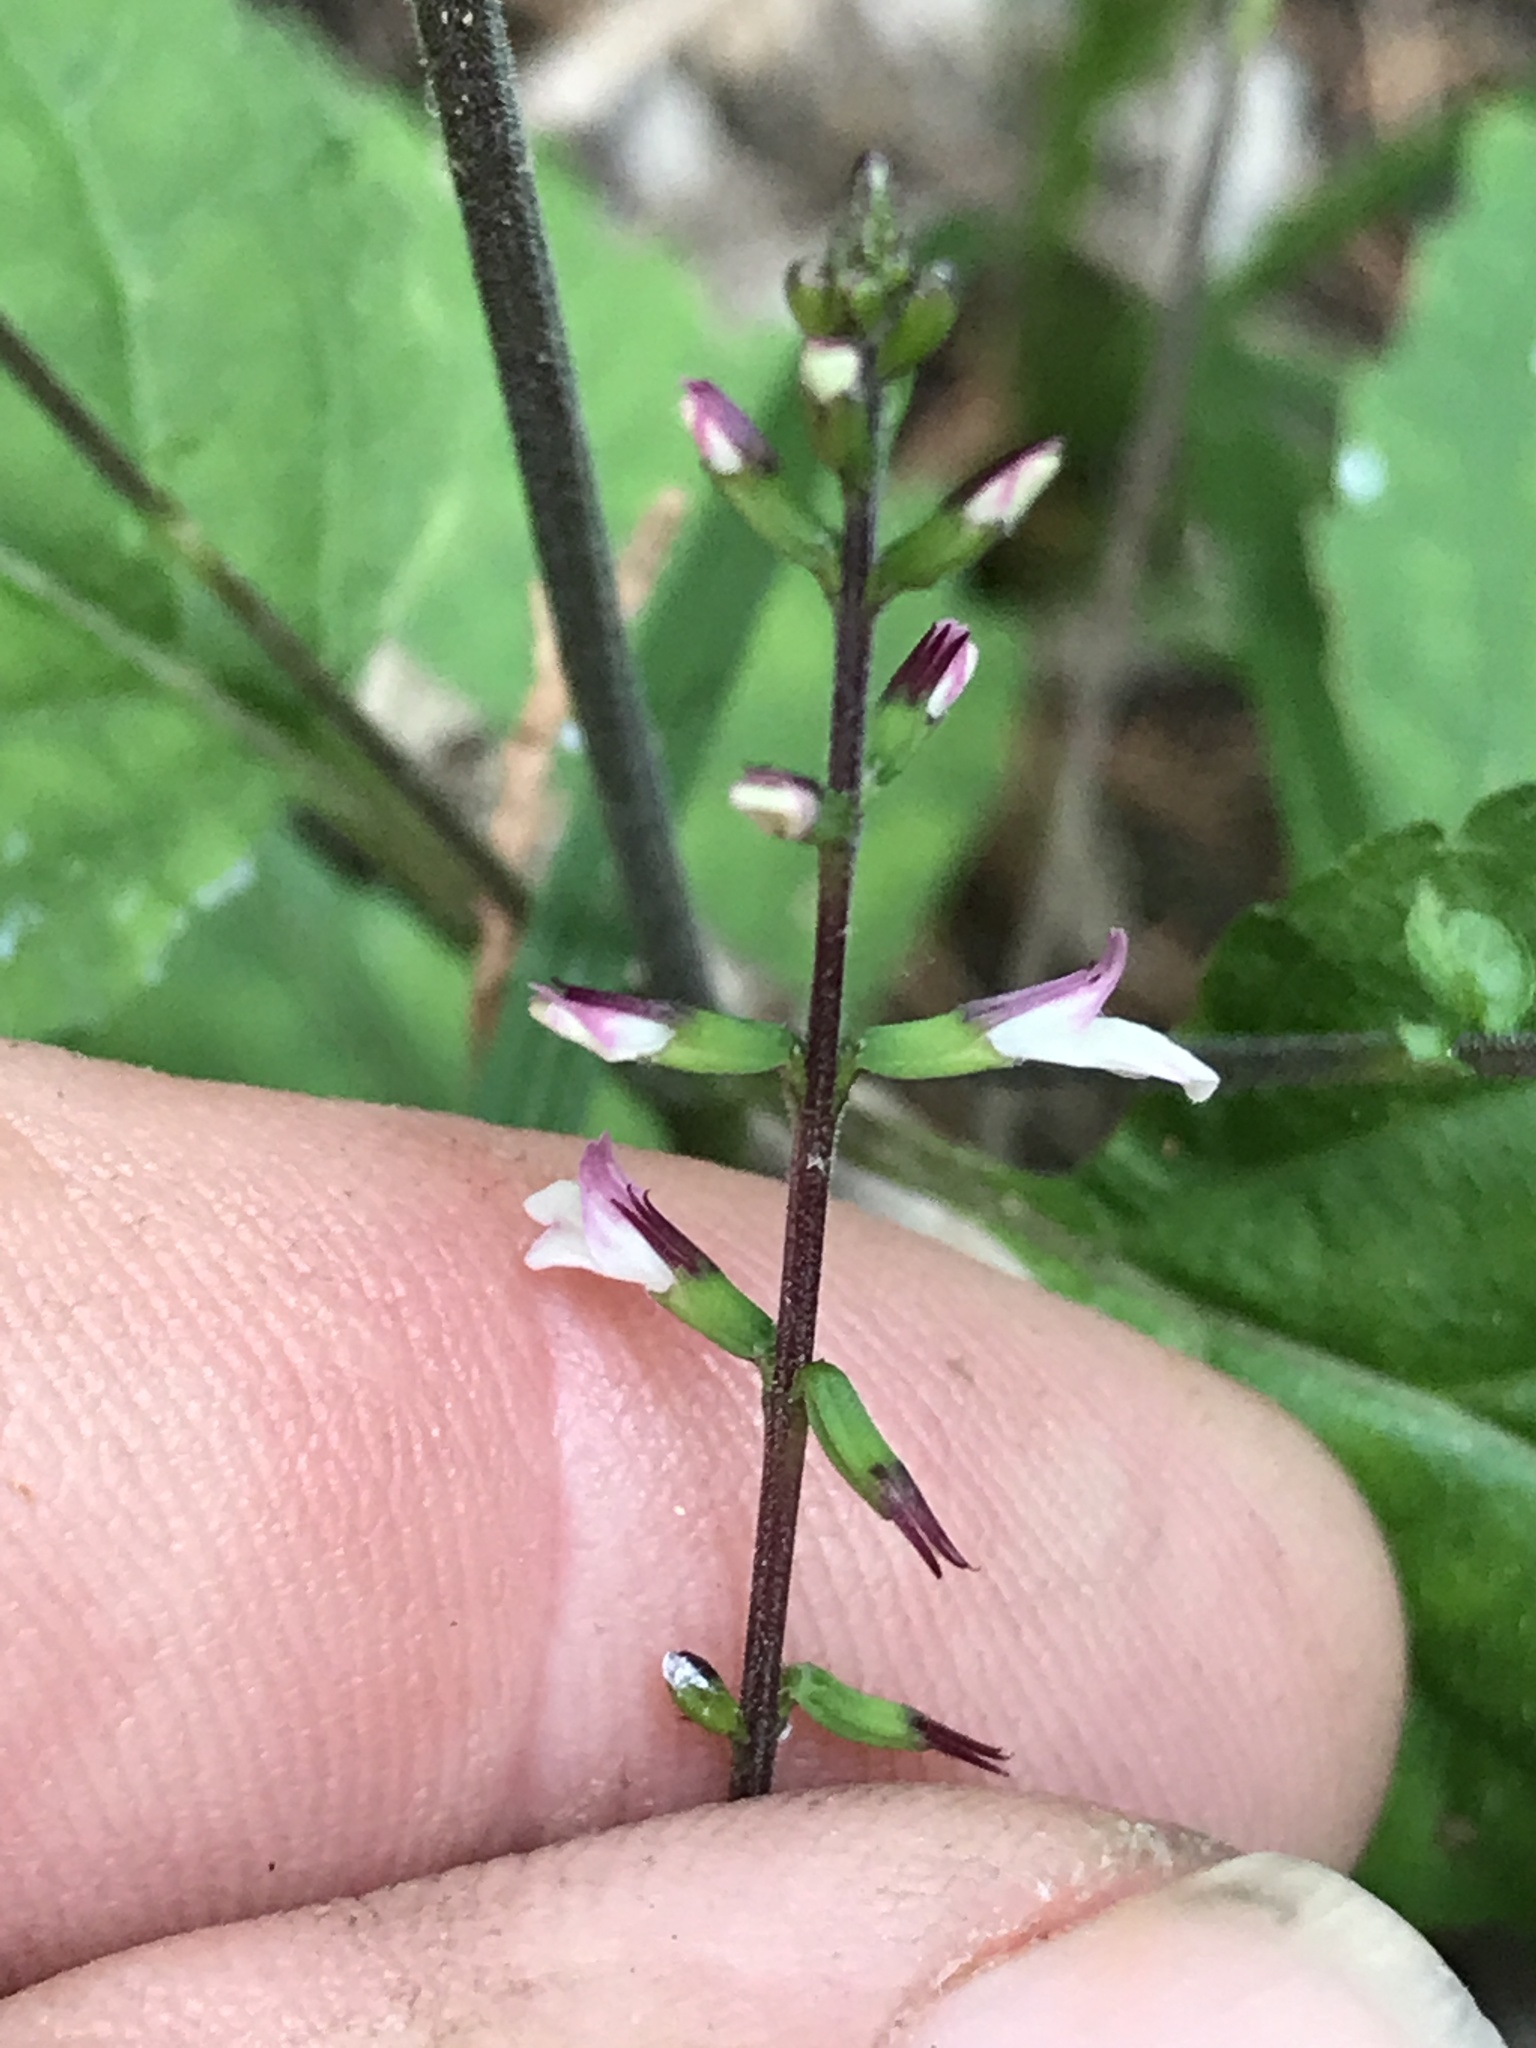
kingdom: Plantae
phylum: Tracheophyta
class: Magnoliopsida
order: Lamiales
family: Phrymaceae
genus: Phryma
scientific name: Phryma leptostachya
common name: American lopseed
